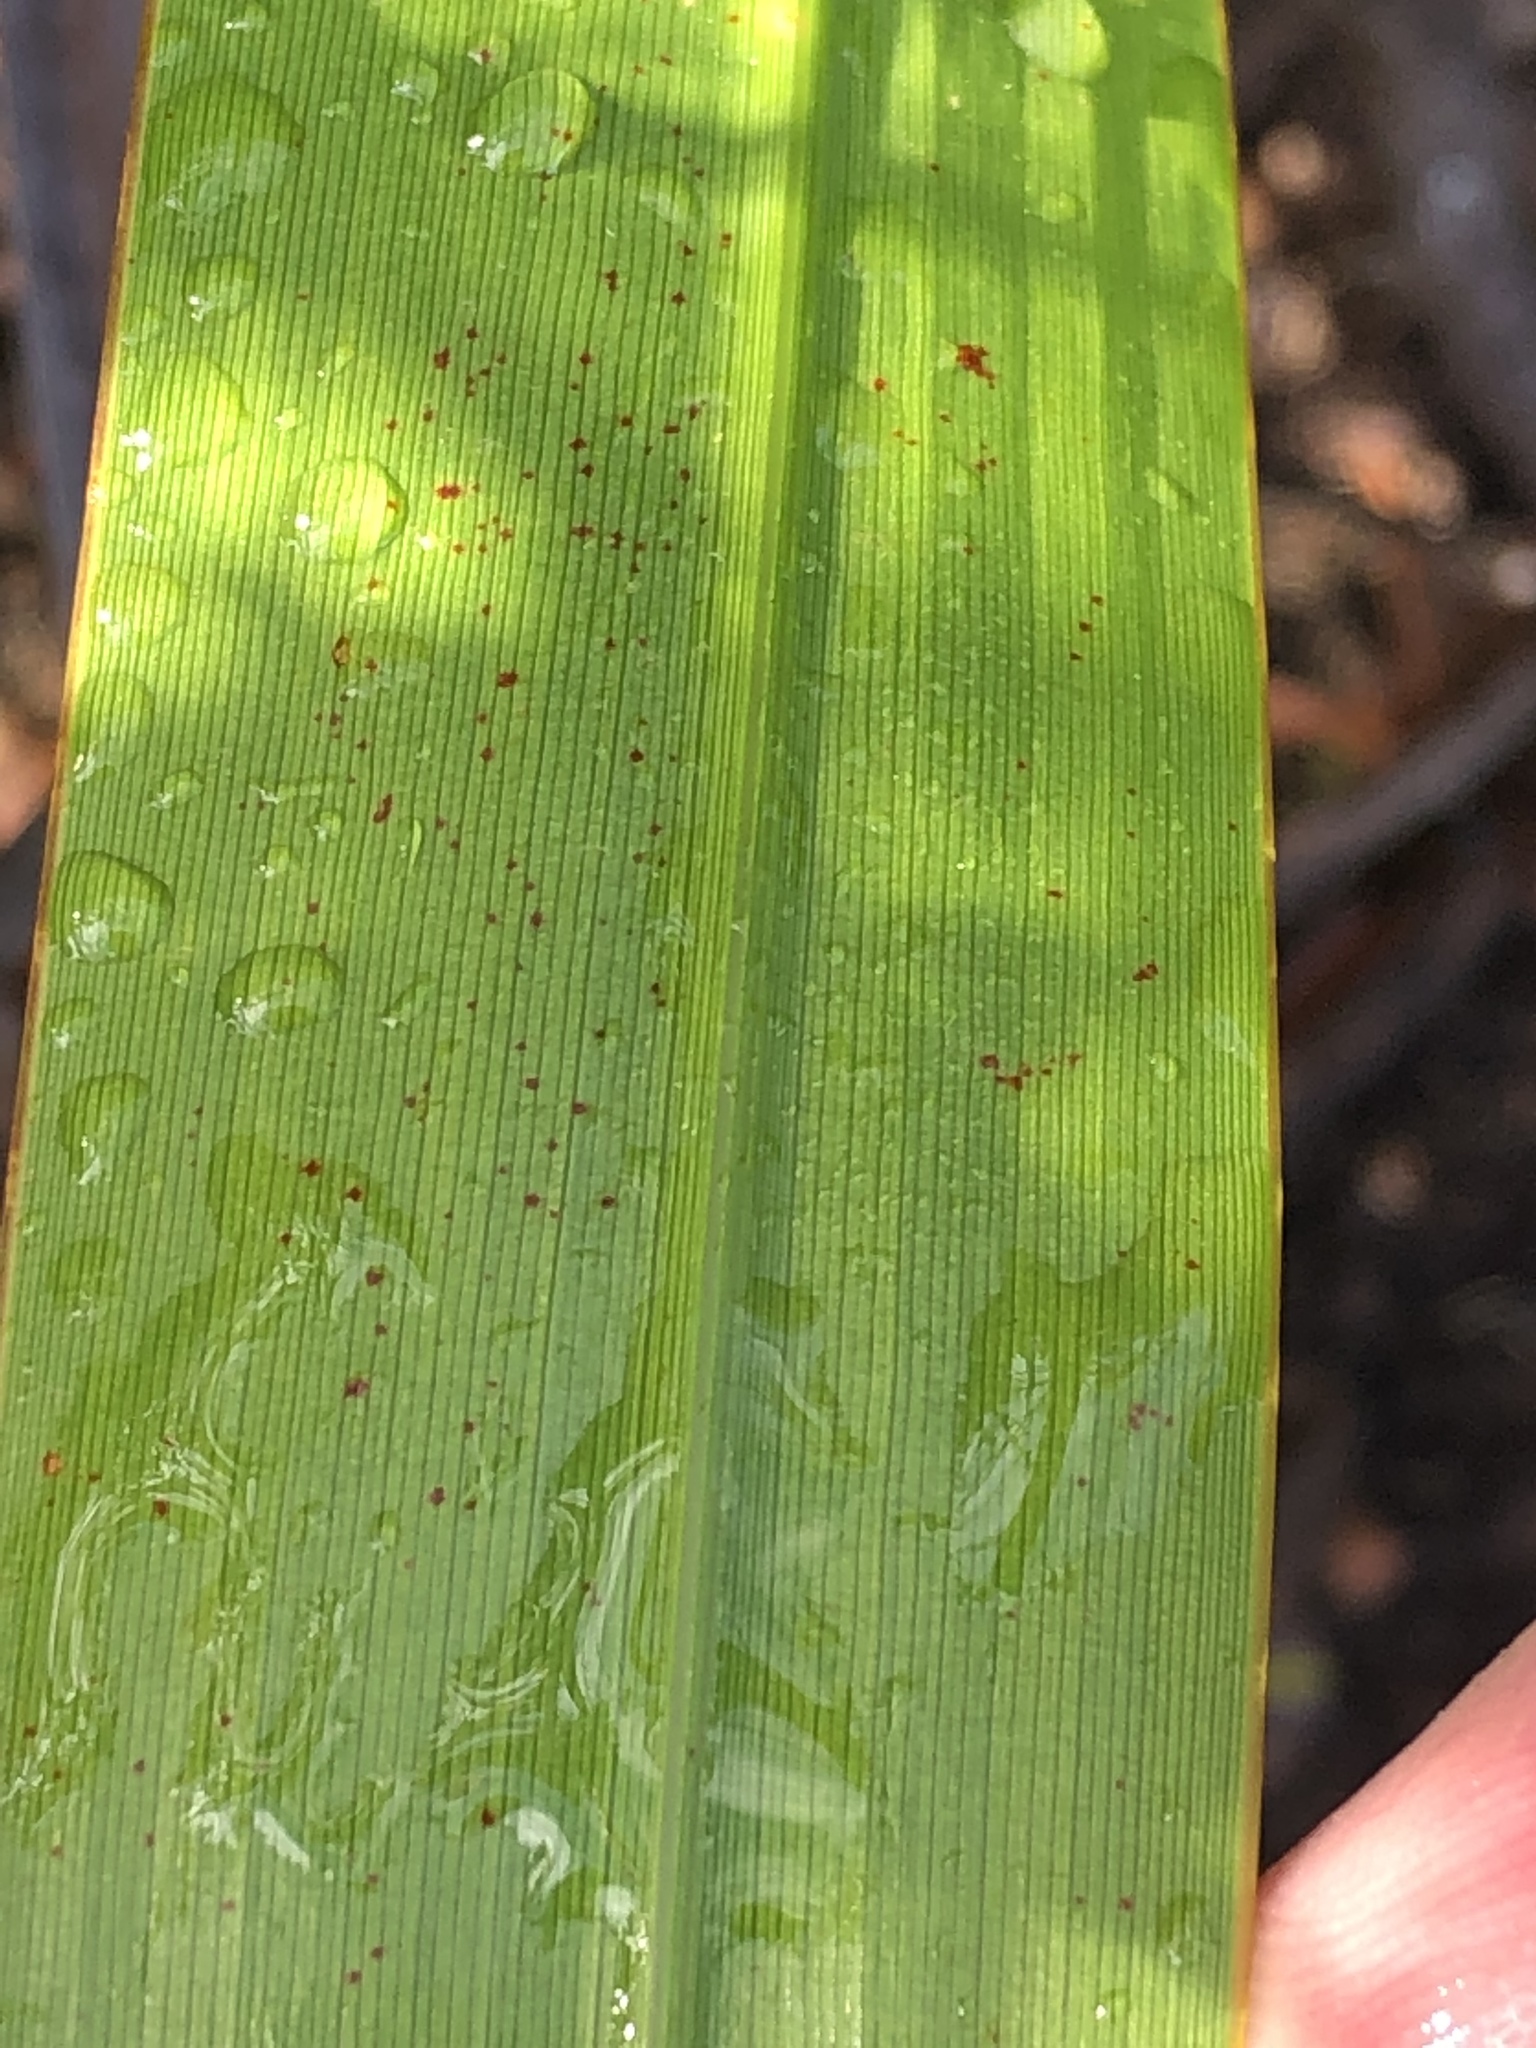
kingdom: Plantae
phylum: Tracheophyta
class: Liliopsida
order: Asparagales
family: Iridaceae
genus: Watsonia
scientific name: Watsonia borbonica
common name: Bugle-lily
